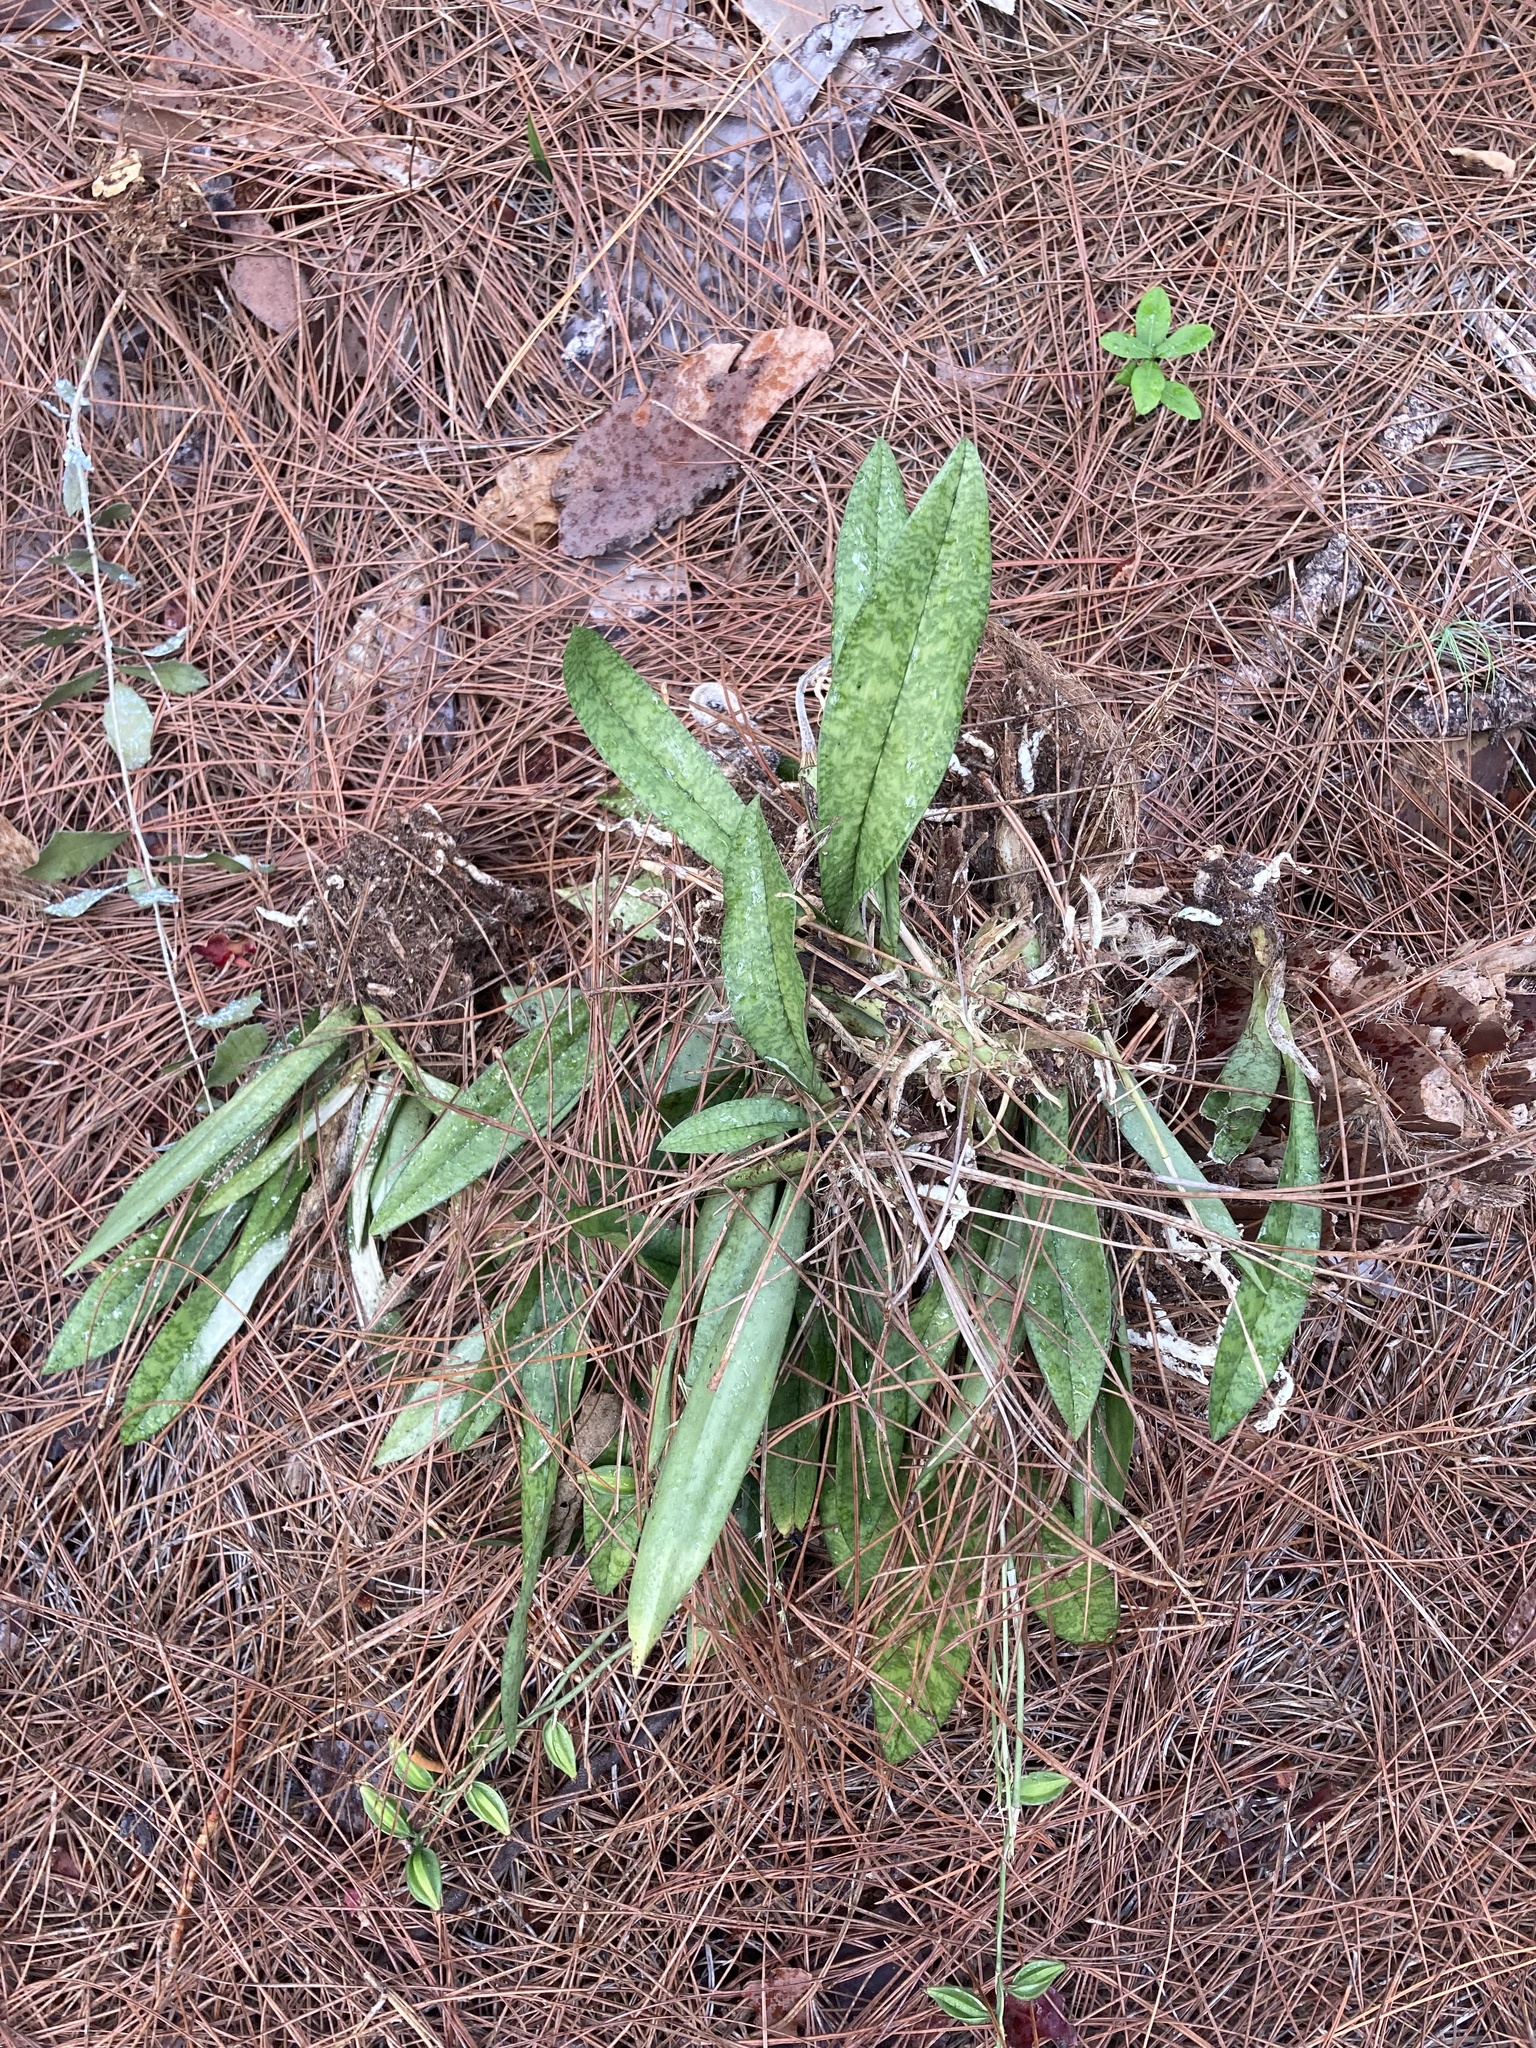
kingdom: Plantae
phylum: Tracheophyta
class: Liliopsida
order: Asparagales
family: Orchidaceae
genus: Eulophia
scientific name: Eulophia maculata
